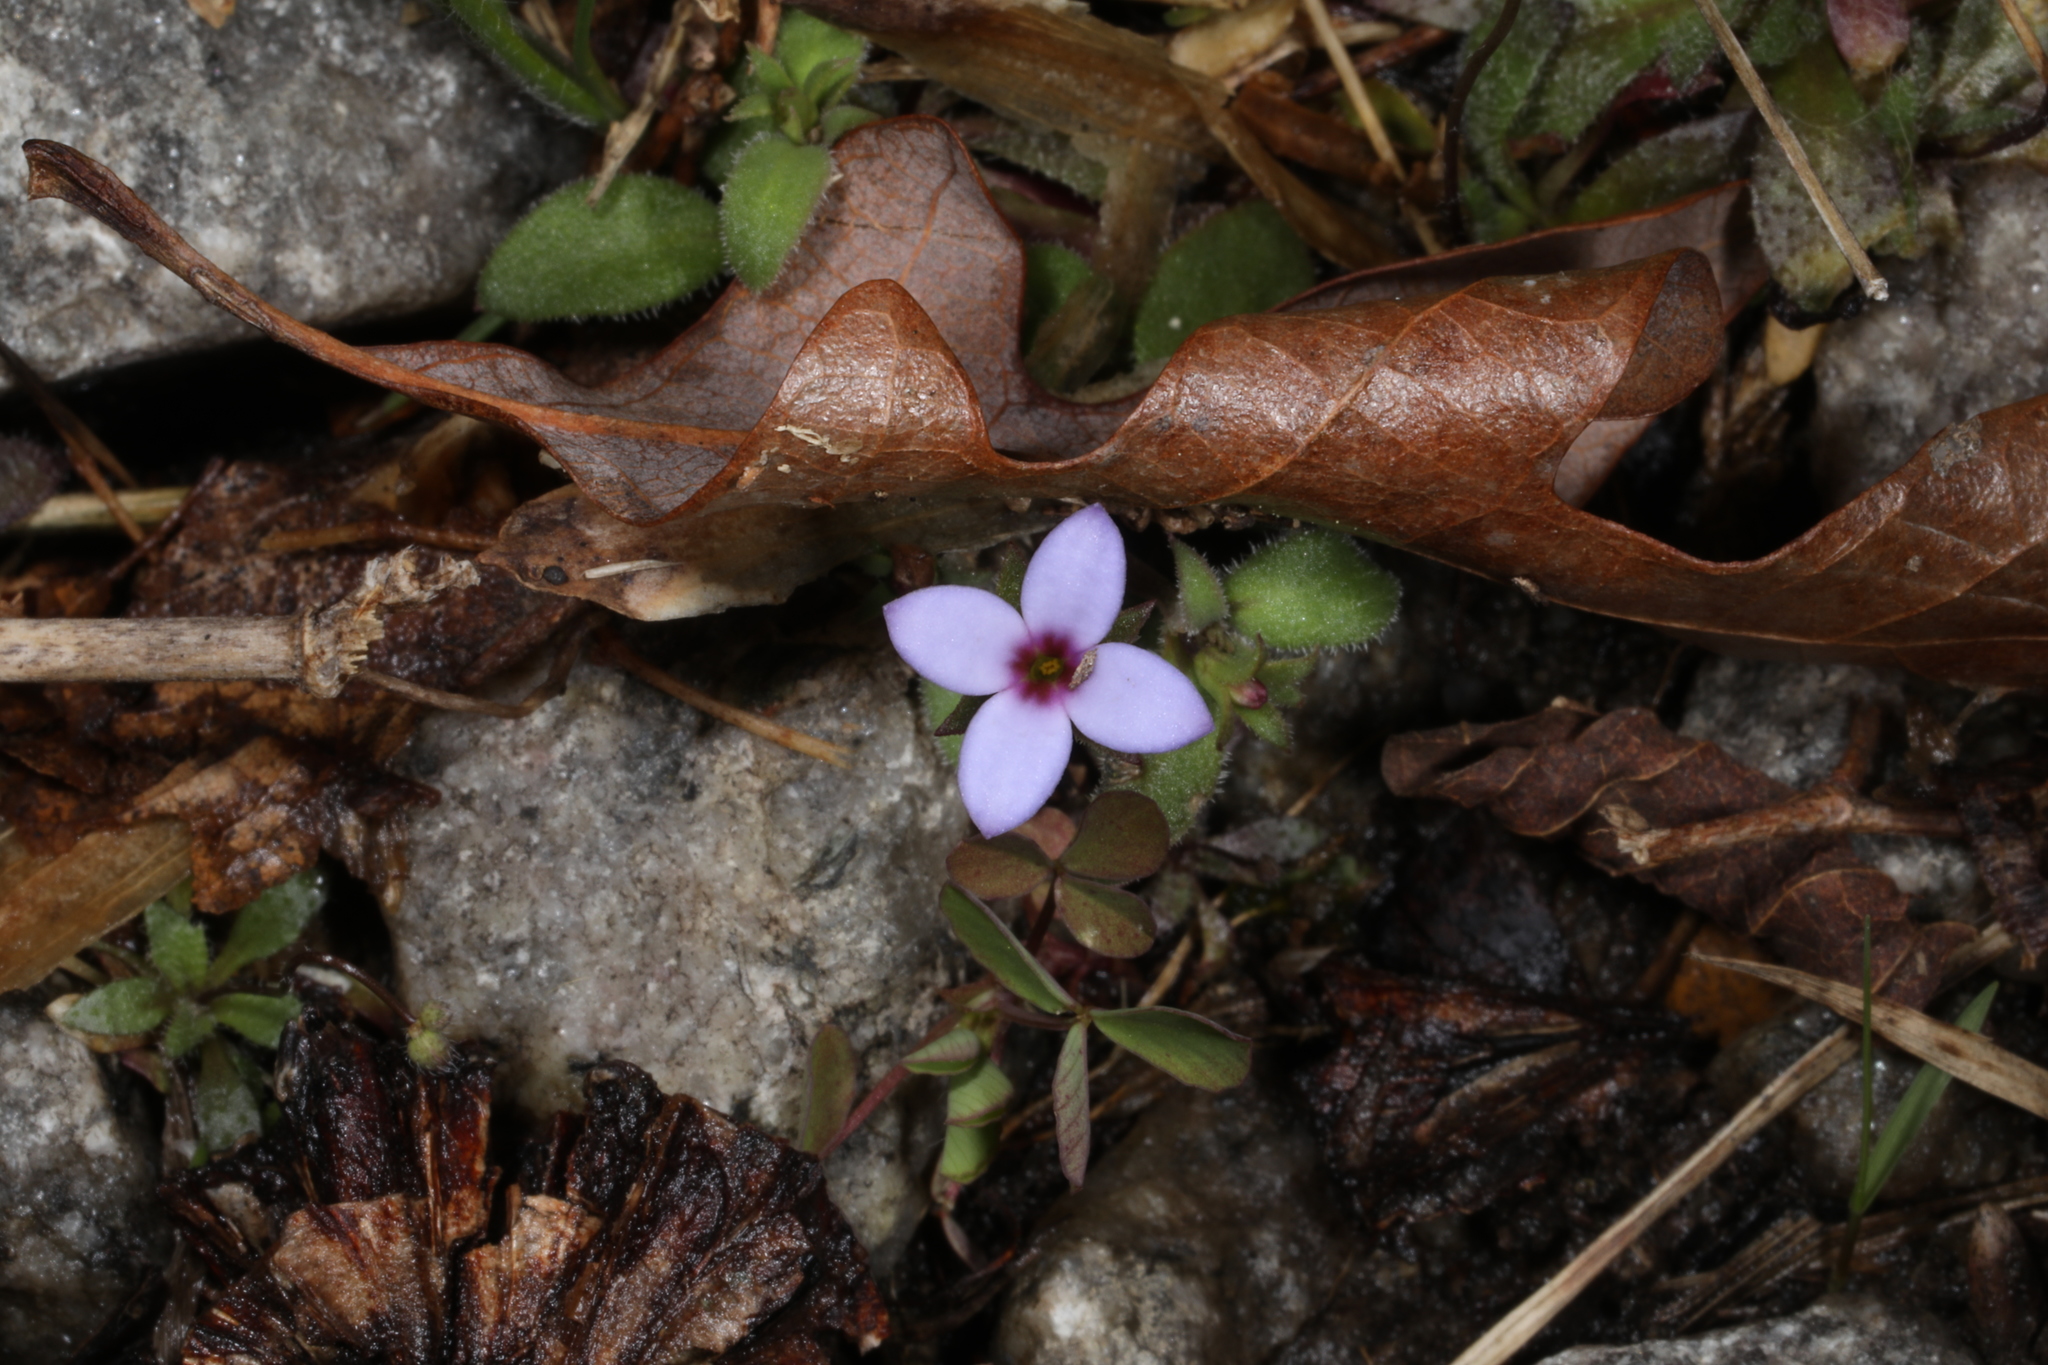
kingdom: Plantae
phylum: Tracheophyta
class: Magnoliopsida
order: Gentianales
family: Rubiaceae
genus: Houstonia
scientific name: Houstonia pusilla
